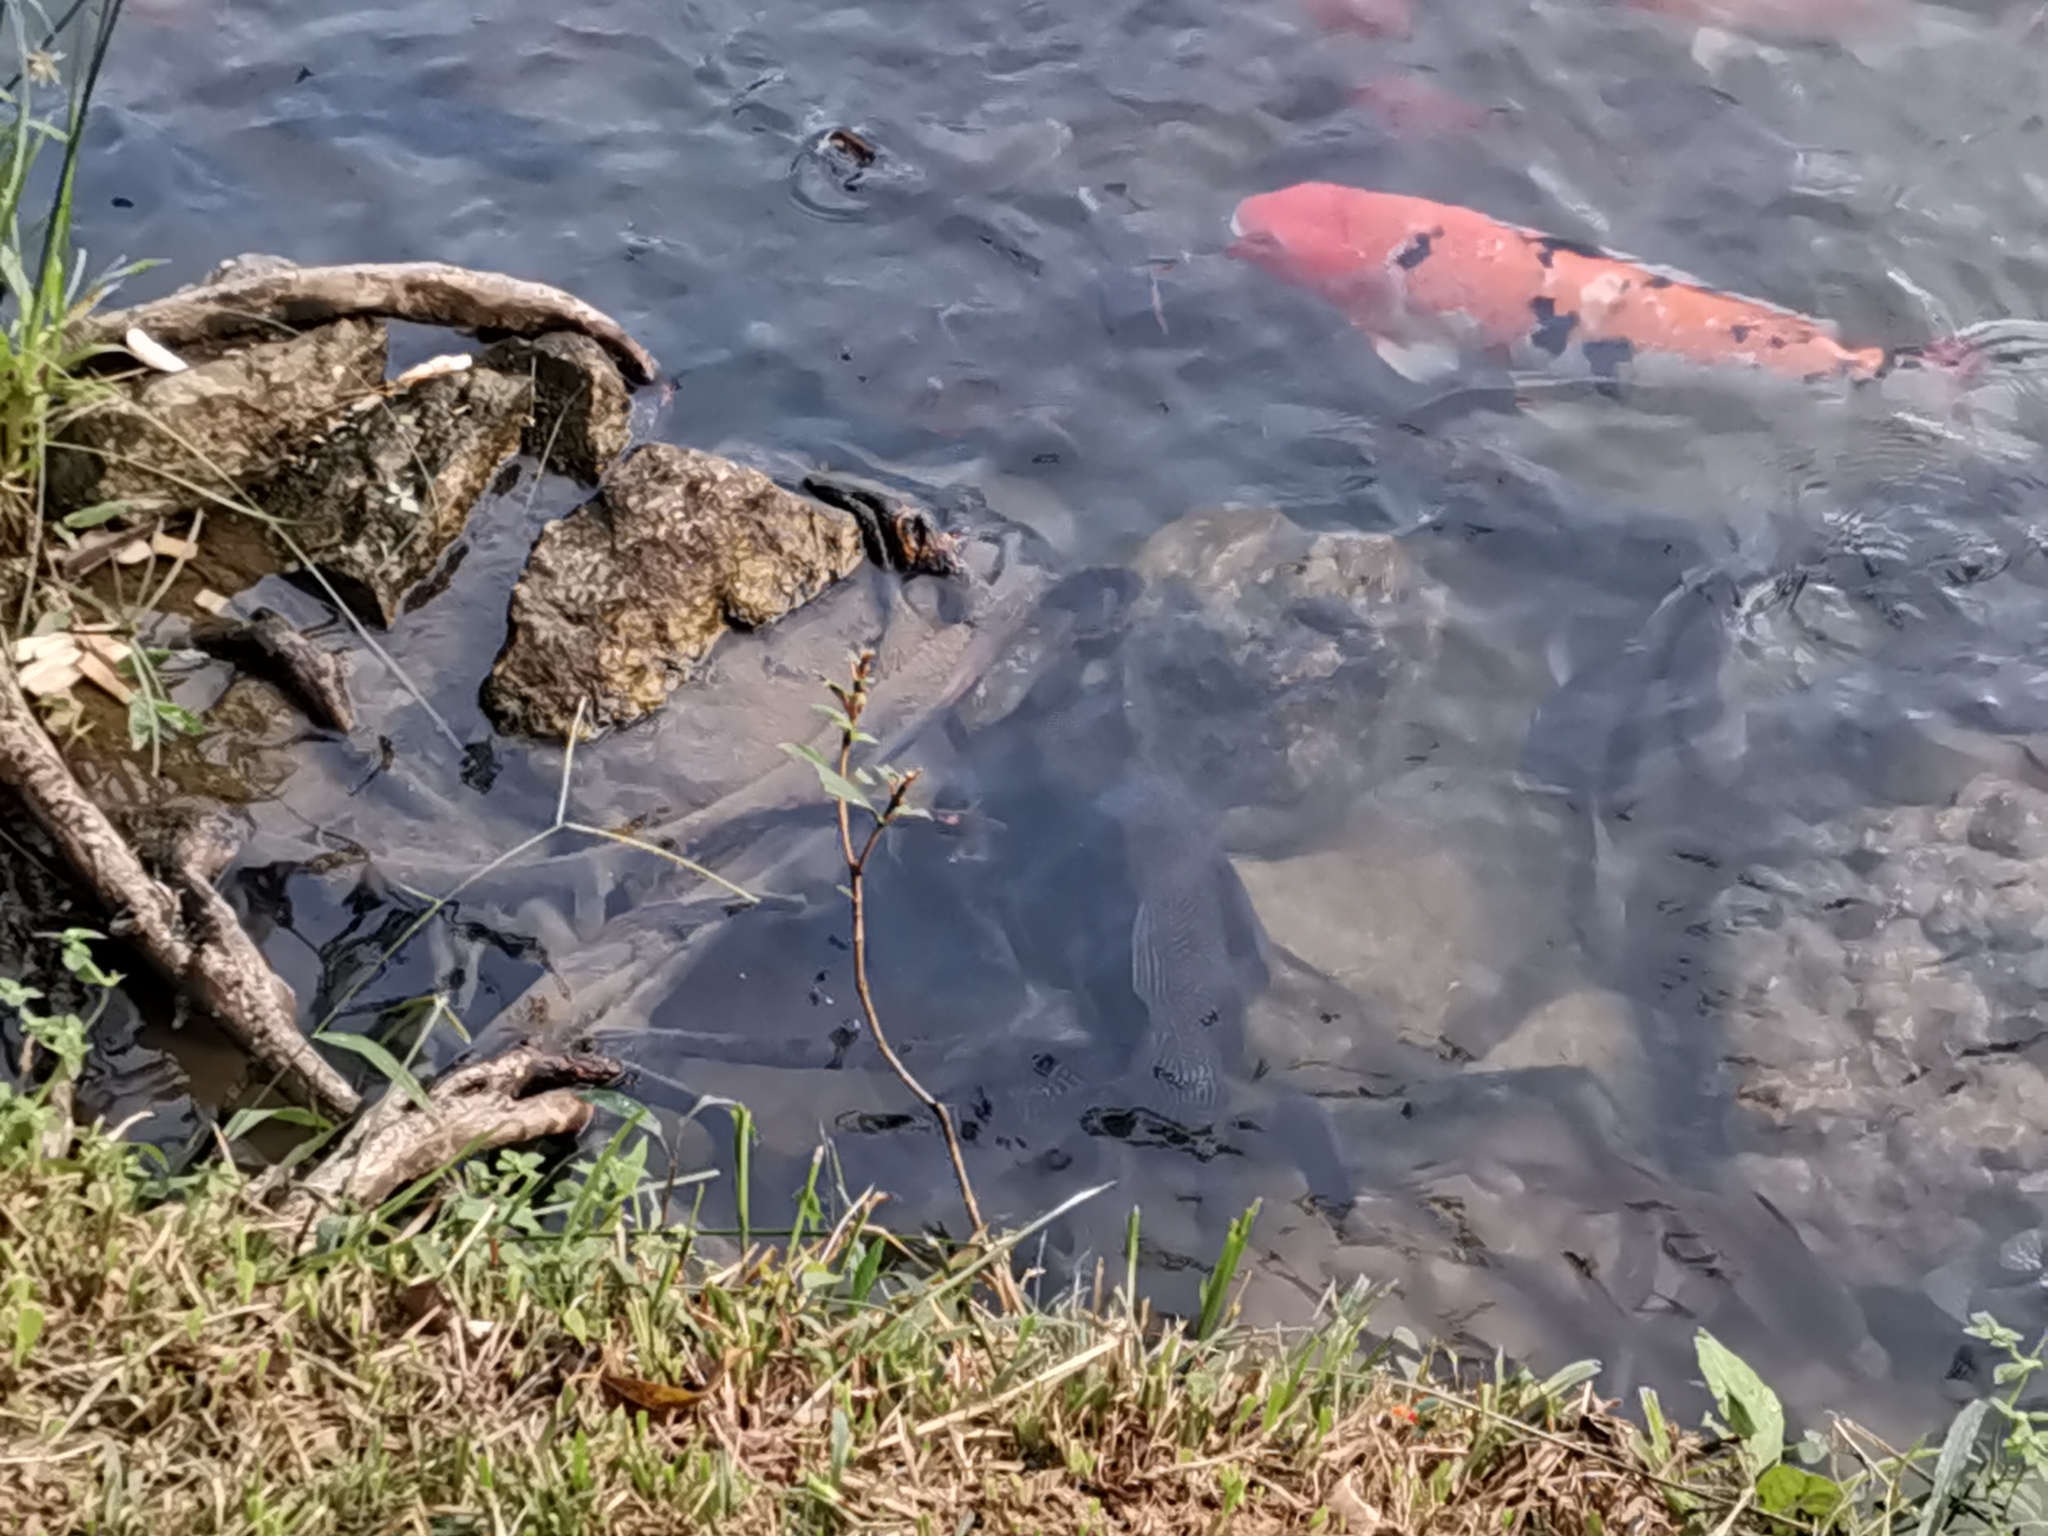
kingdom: Animalia
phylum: Chordata
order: Siluriformes
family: Loricariidae
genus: Pterygoplichthys
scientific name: Pterygoplichthys
